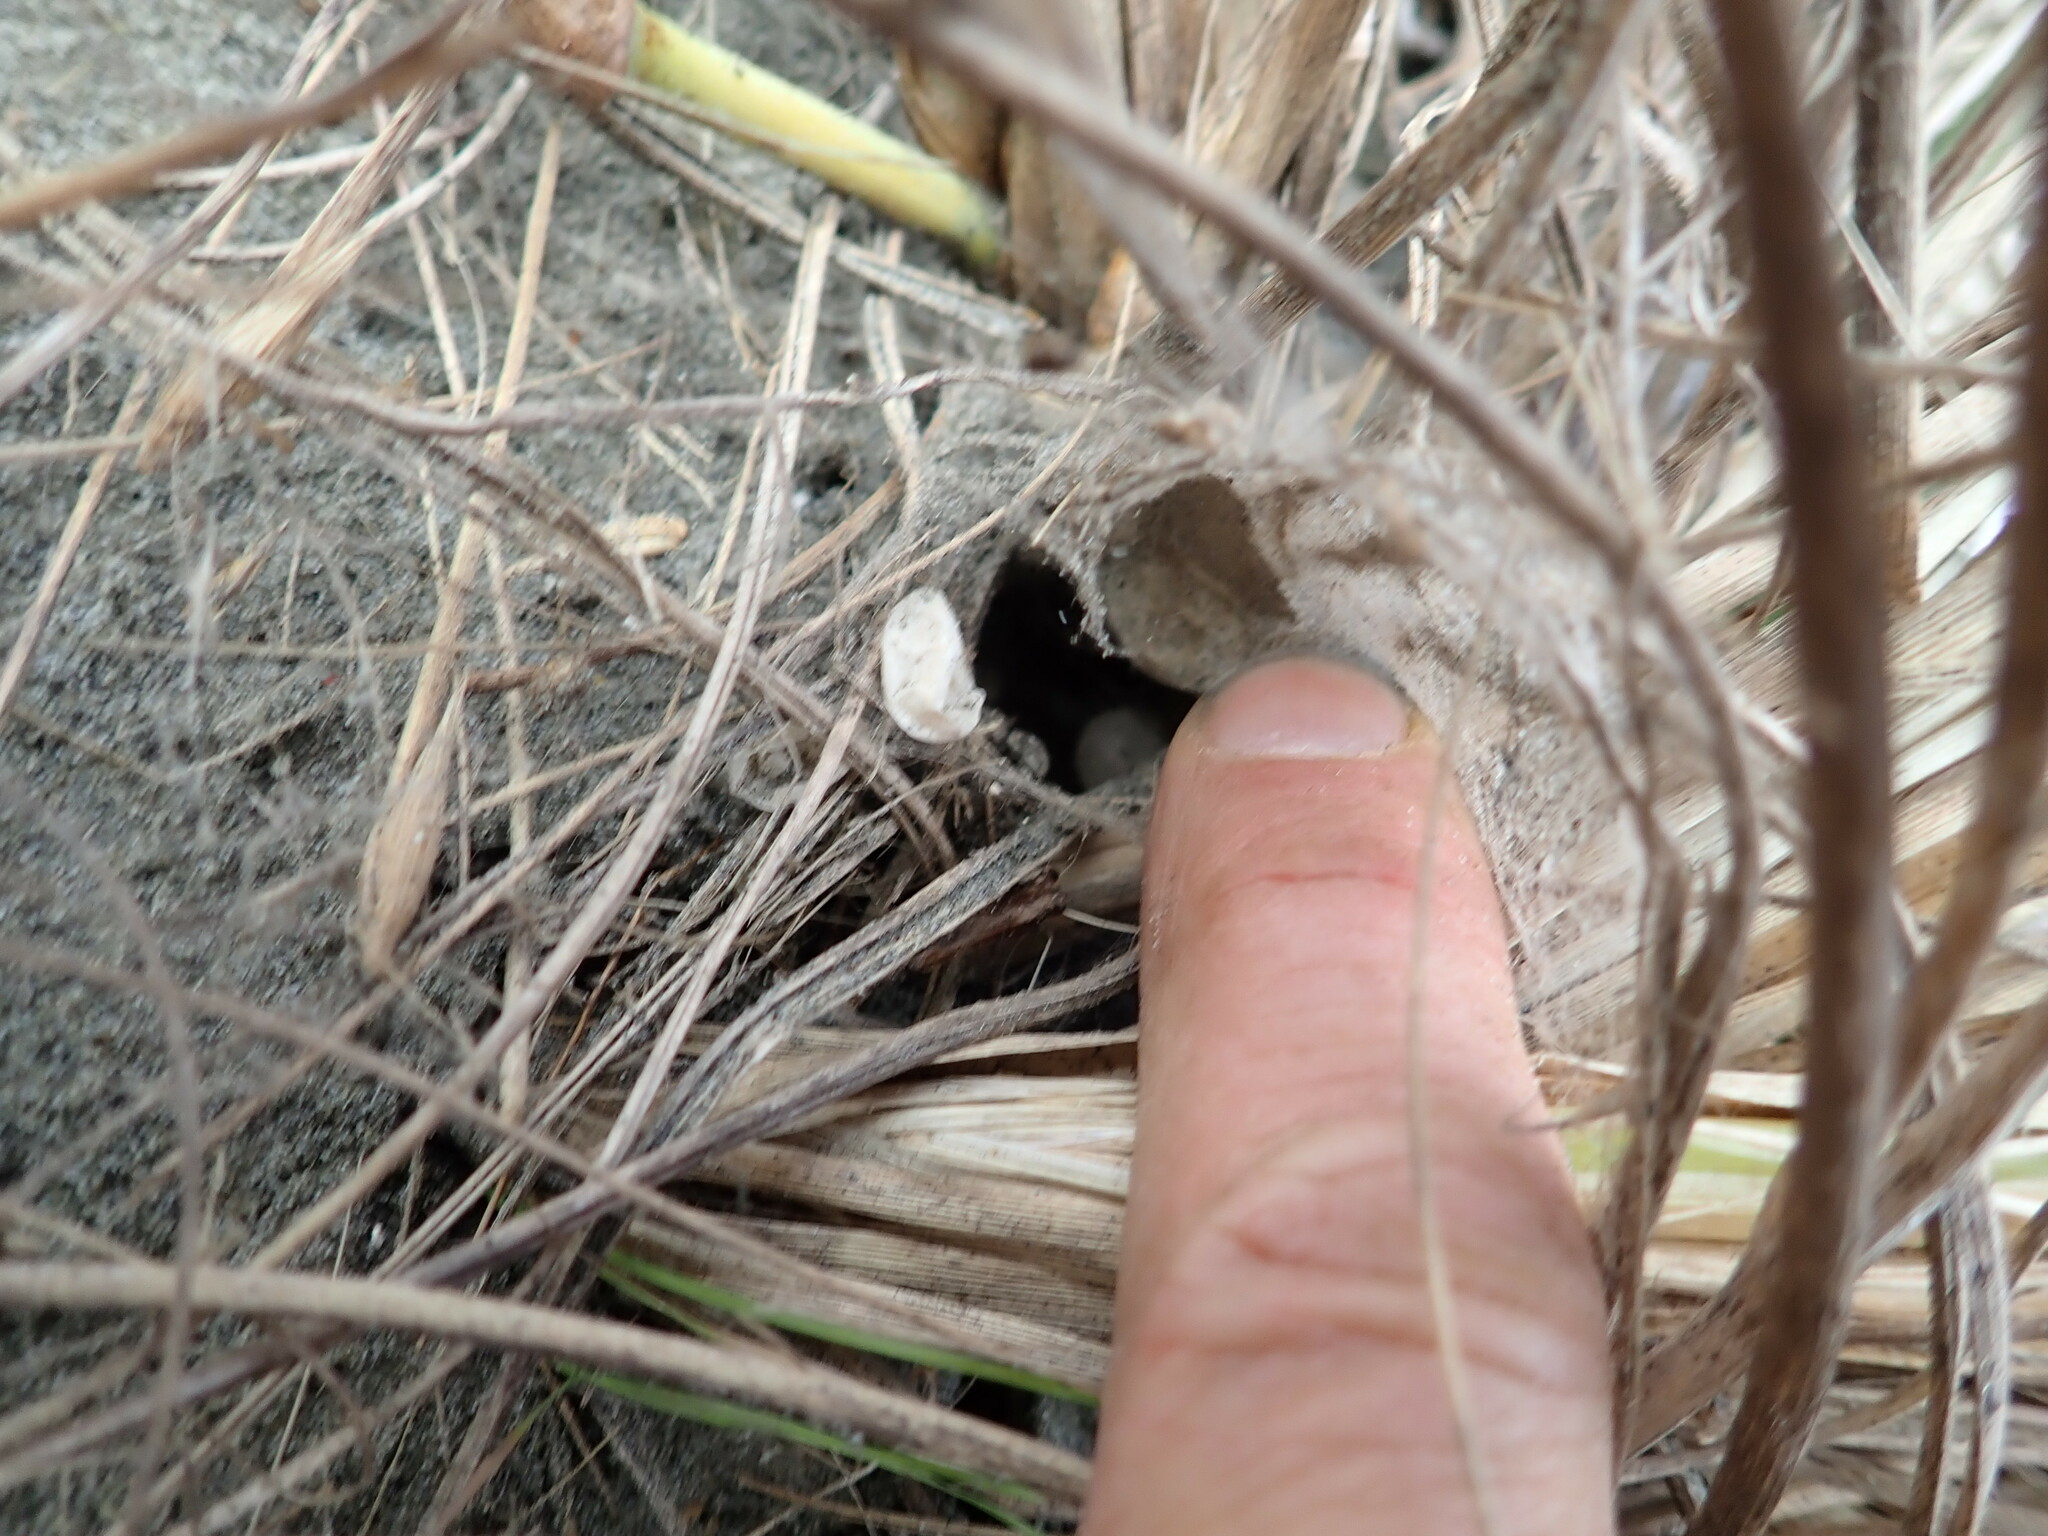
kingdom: Animalia
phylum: Arthropoda
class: Arachnida
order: Araneae
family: Thomisidae
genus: Sidymella
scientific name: Sidymella trapezia
